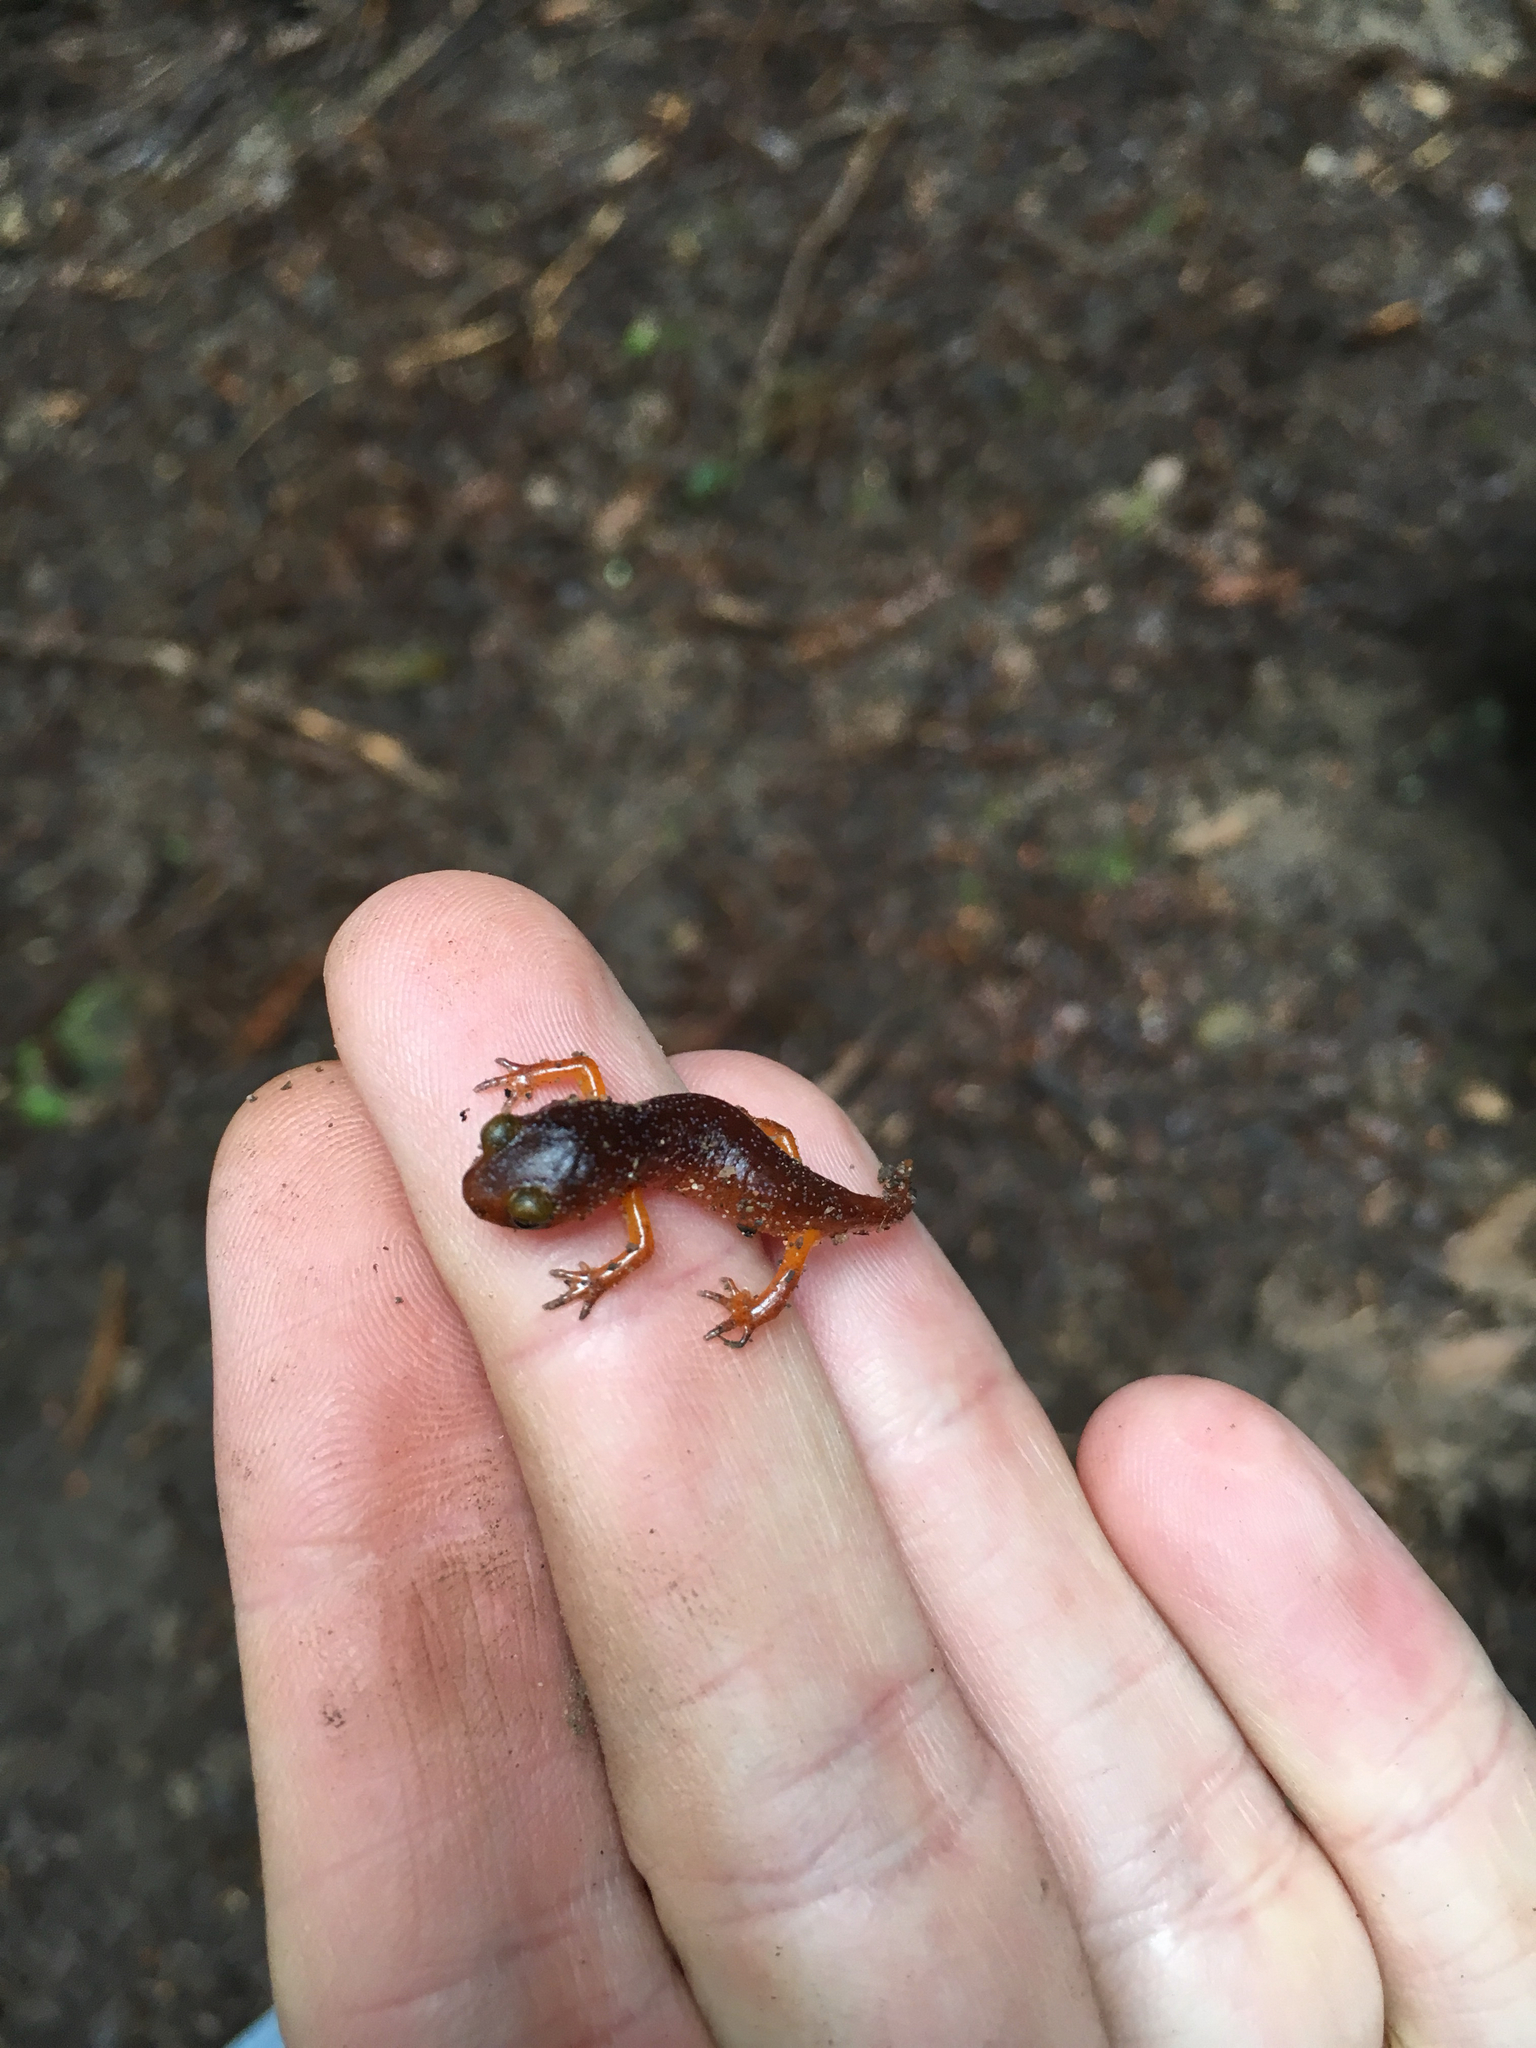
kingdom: Animalia
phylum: Chordata
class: Amphibia
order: Caudata
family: Plethodontidae
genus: Ensatina
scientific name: Ensatina eschscholtzii
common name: Ensatina
